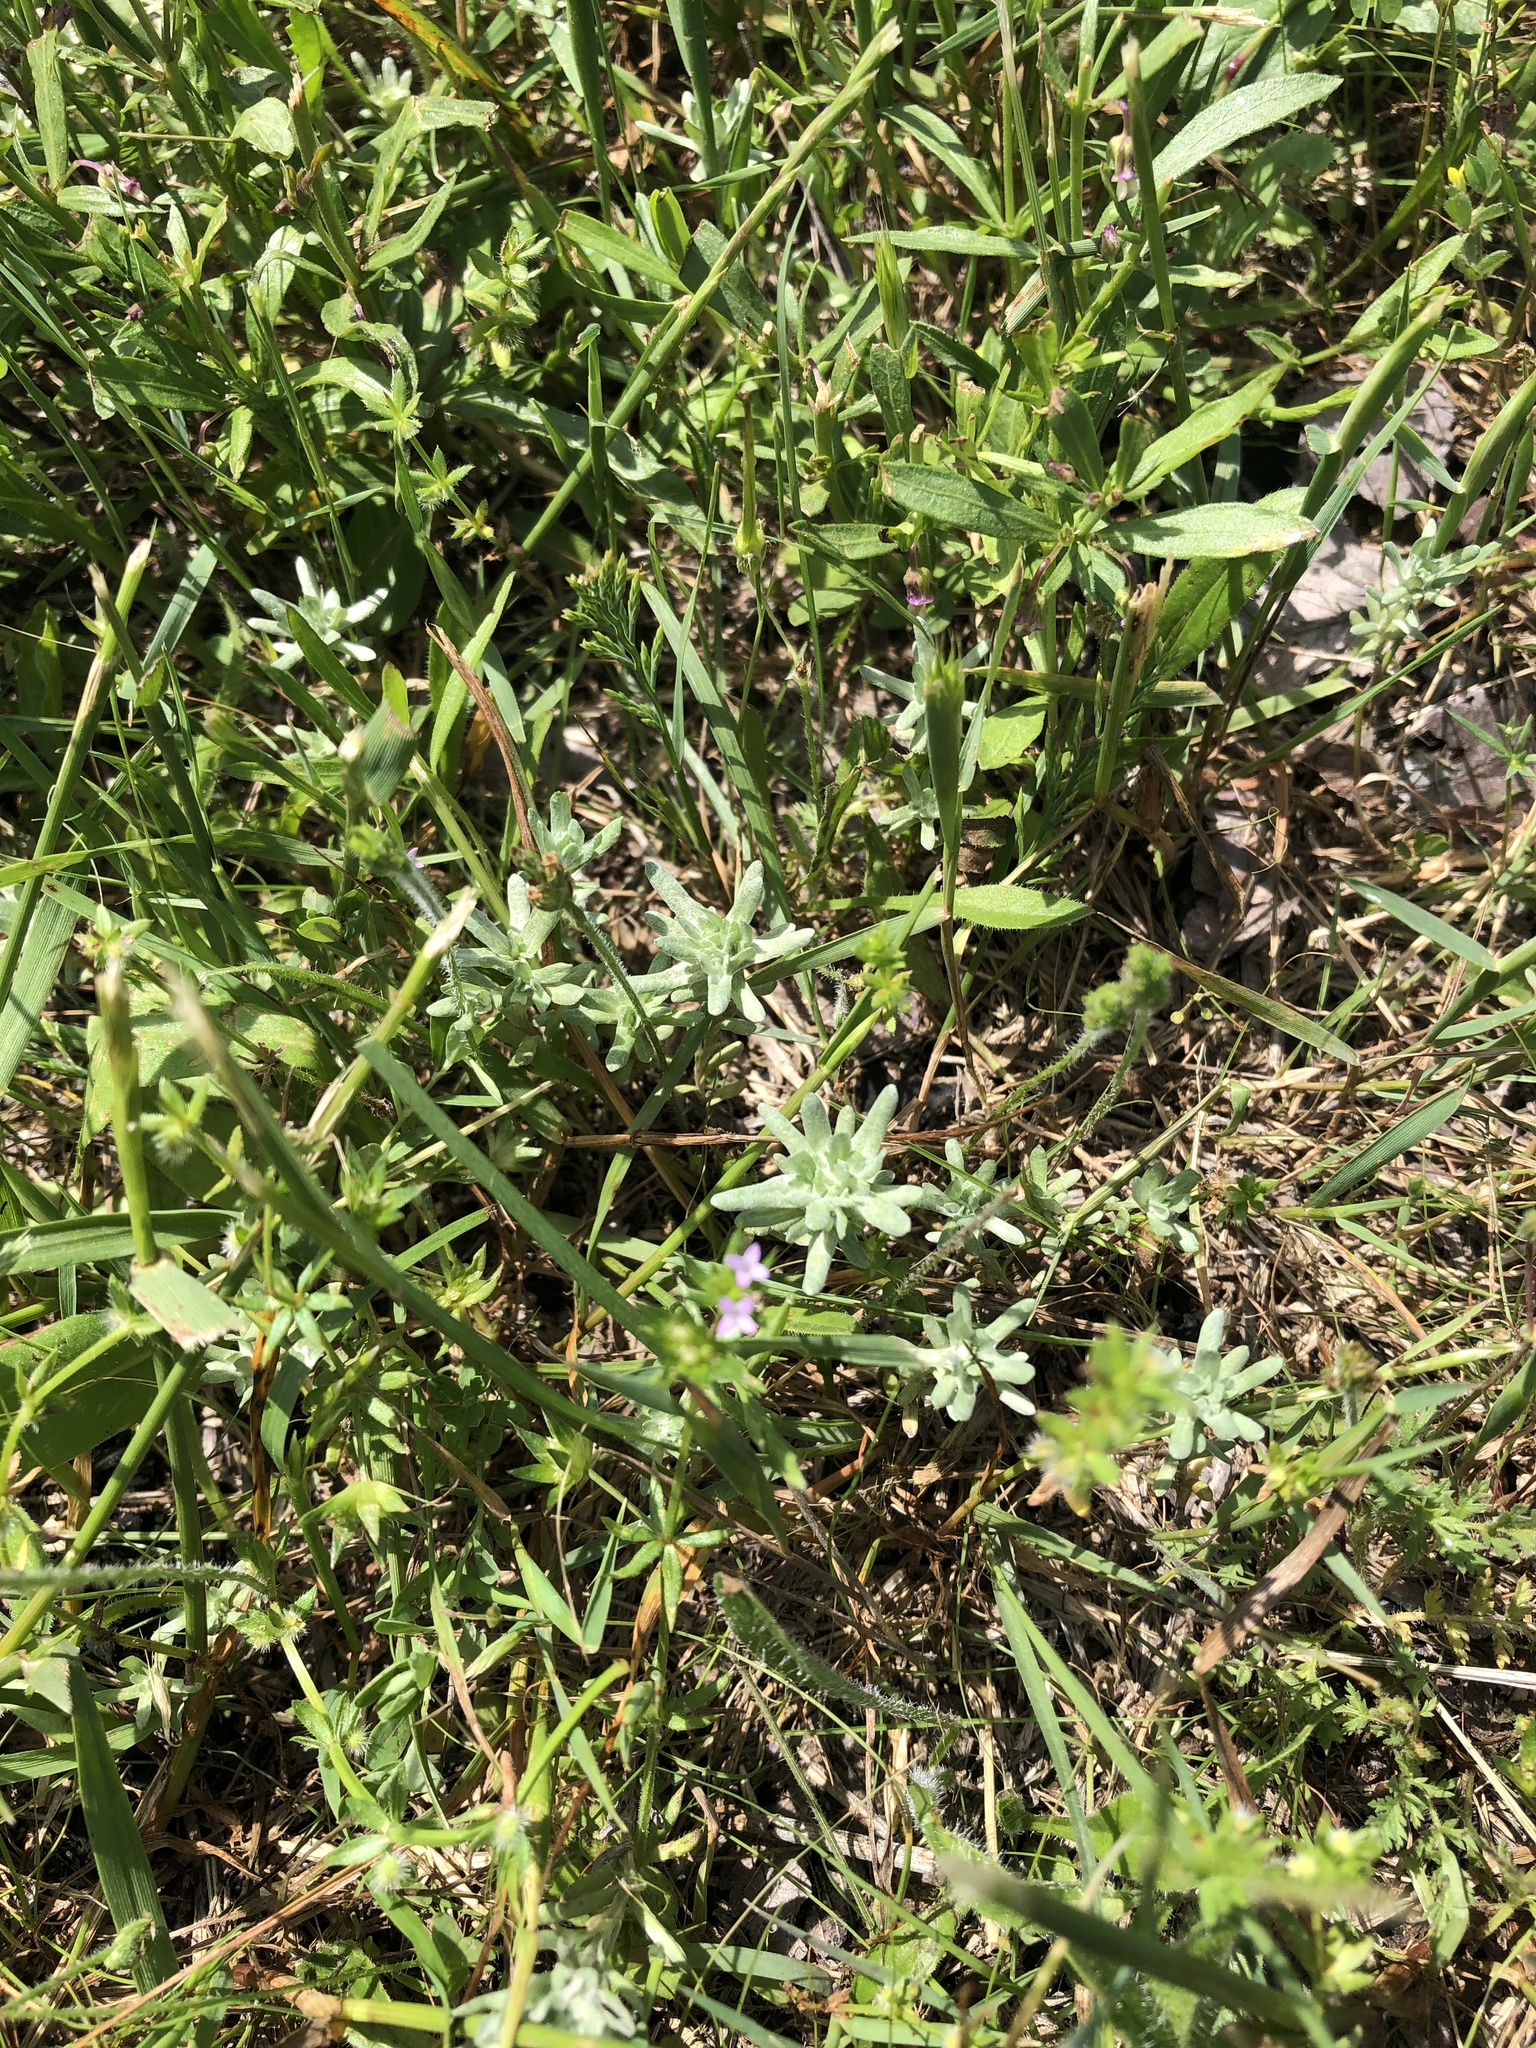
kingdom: Plantae
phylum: Tracheophyta
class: Magnoliopsida
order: Asterales
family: Asteraceae
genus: Diaperia
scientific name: Diaperia prolifera
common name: Big-head rabbit-tobacco
